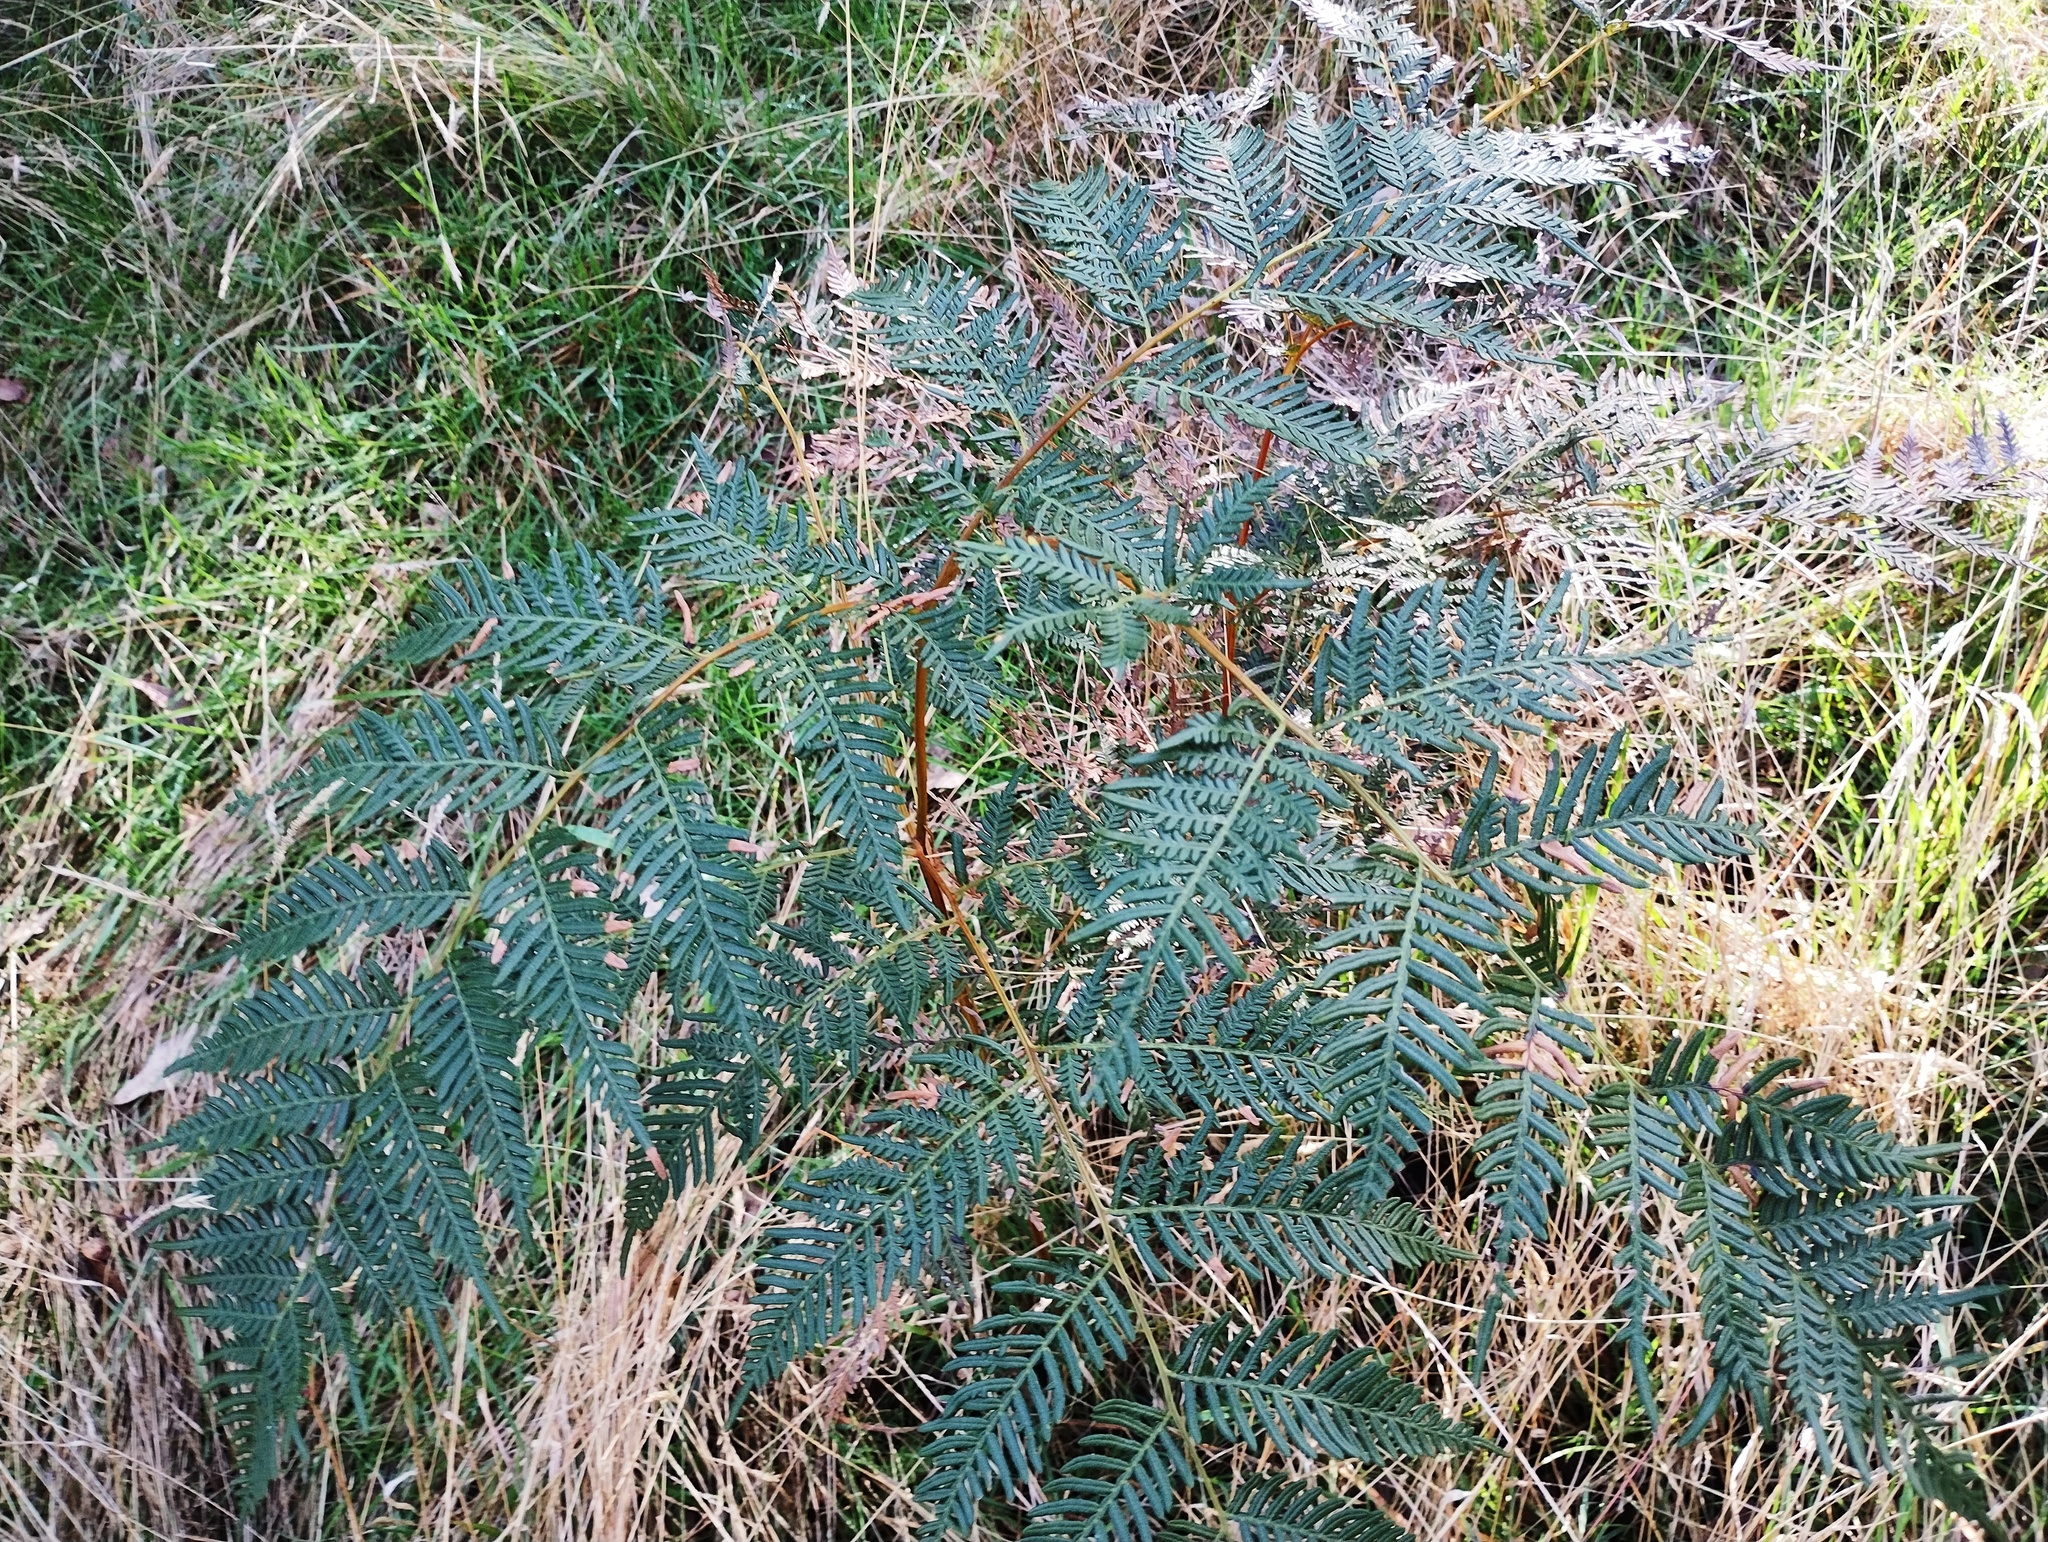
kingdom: Plantae
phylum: Tracheophyta
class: Polypodiopsida
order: Polypodiales
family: Dennstaedtiaceae
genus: Pteridium
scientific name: Pteridium esculentum
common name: Bracken fern
